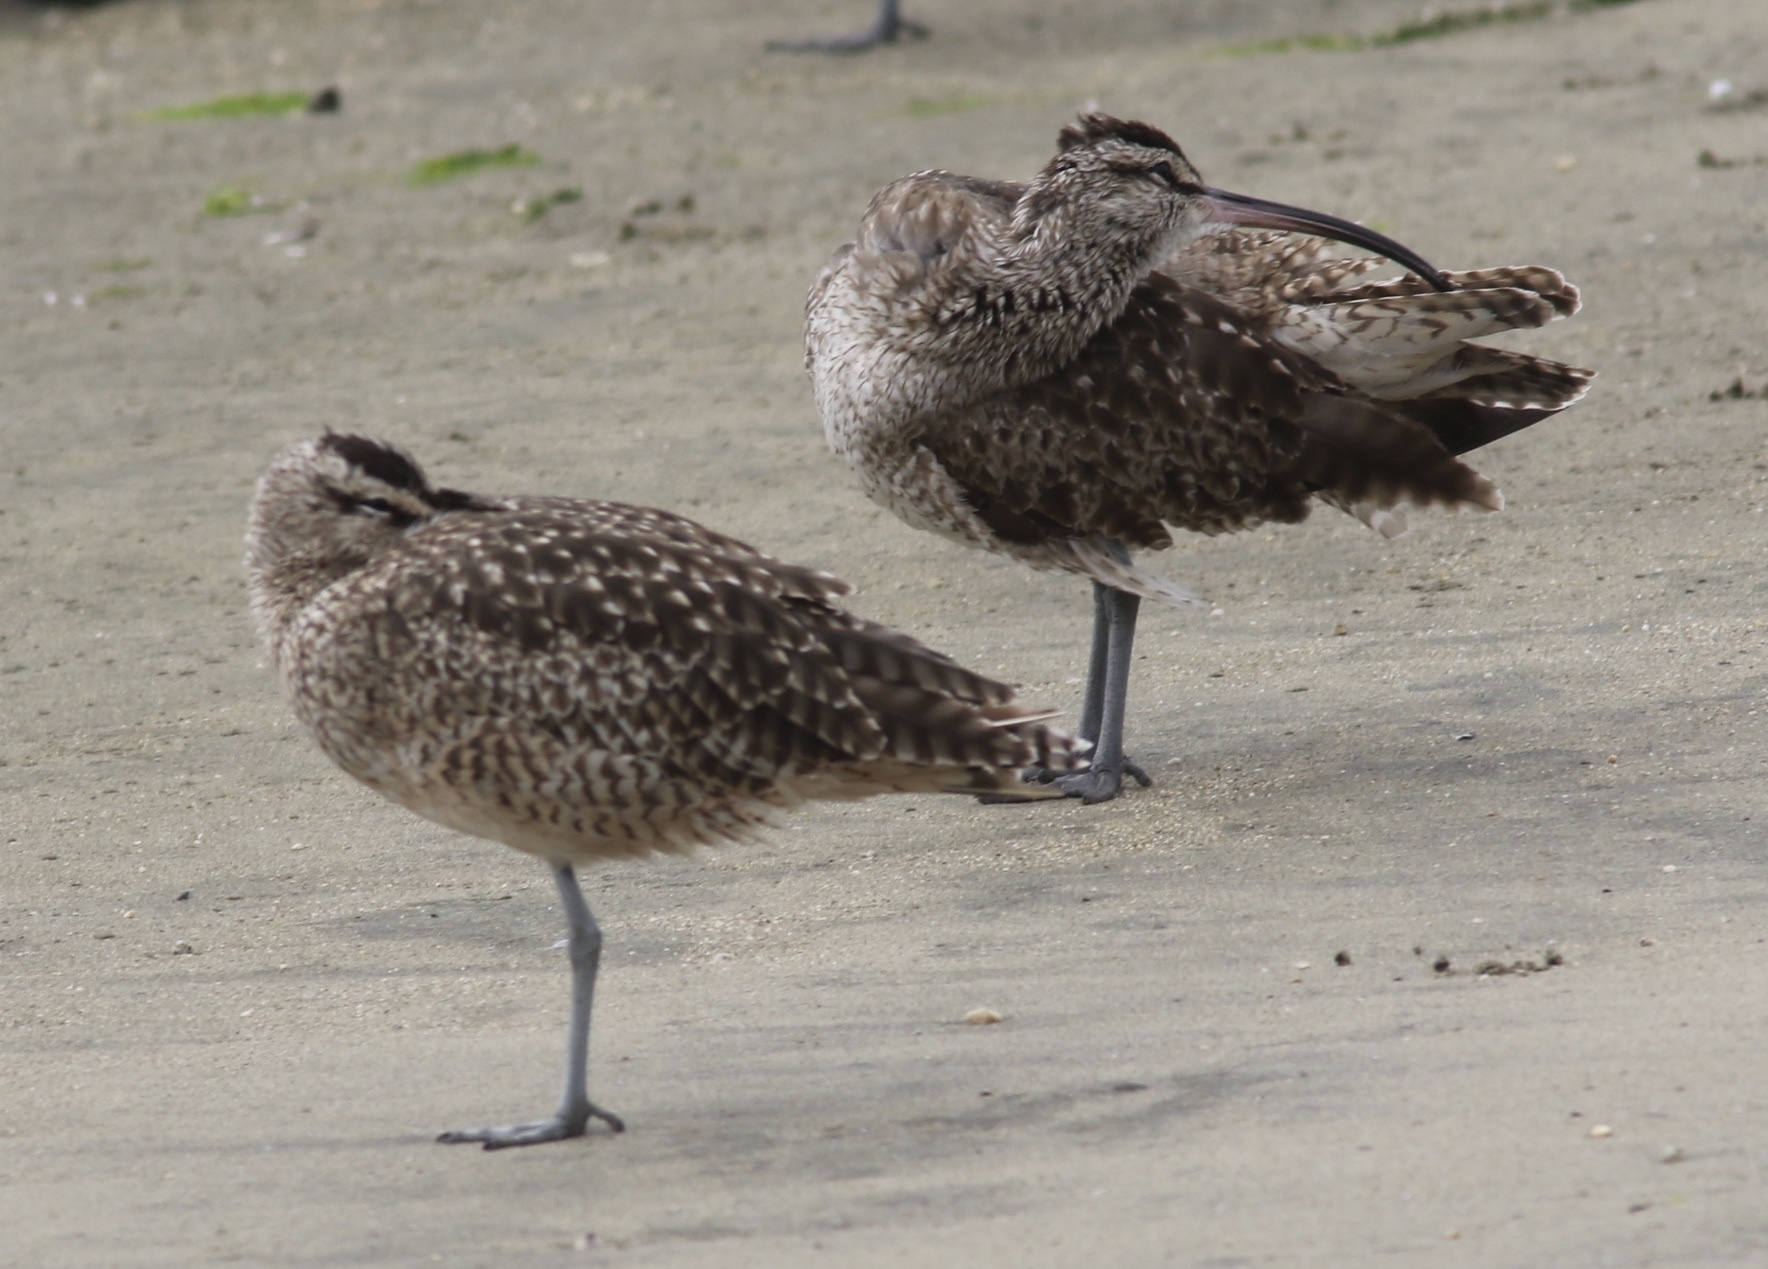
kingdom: Animalia
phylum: Chordata
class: Aves
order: Charadriiformes
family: Scolopacidae
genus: Numenius
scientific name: Numenius phaeopus
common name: Whimbrel
